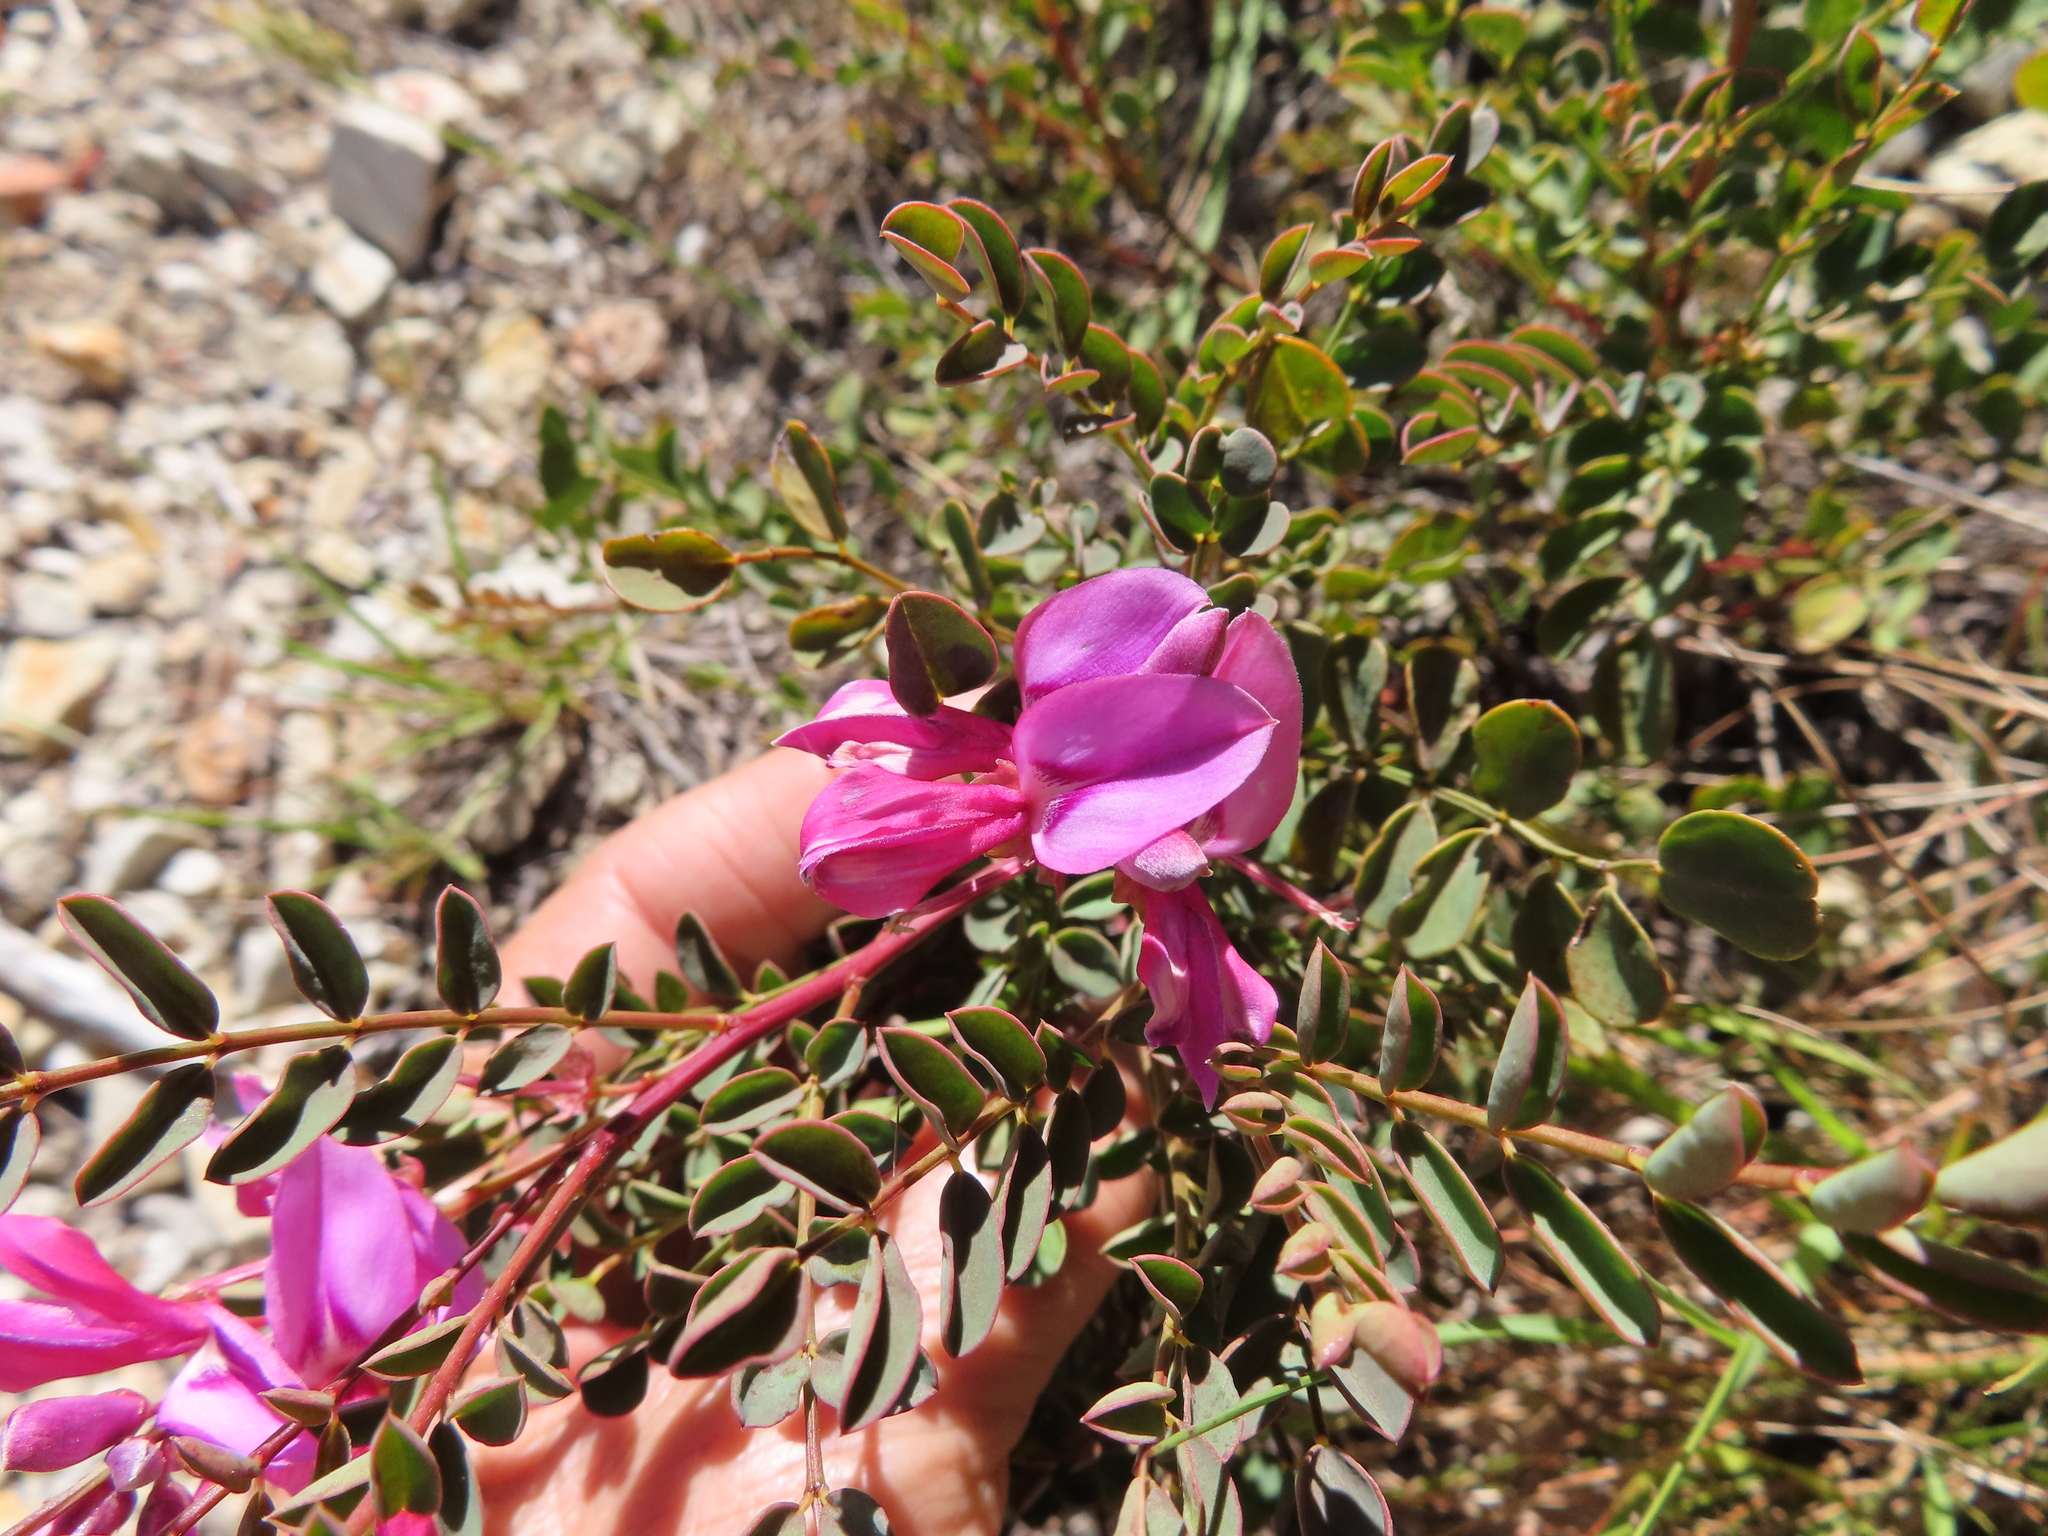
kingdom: Plantae
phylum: Tracheophyta
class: Magnoliopsida
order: Fabales
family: Fabaceae
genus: Indigofera
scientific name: Indigofera langebergensis
